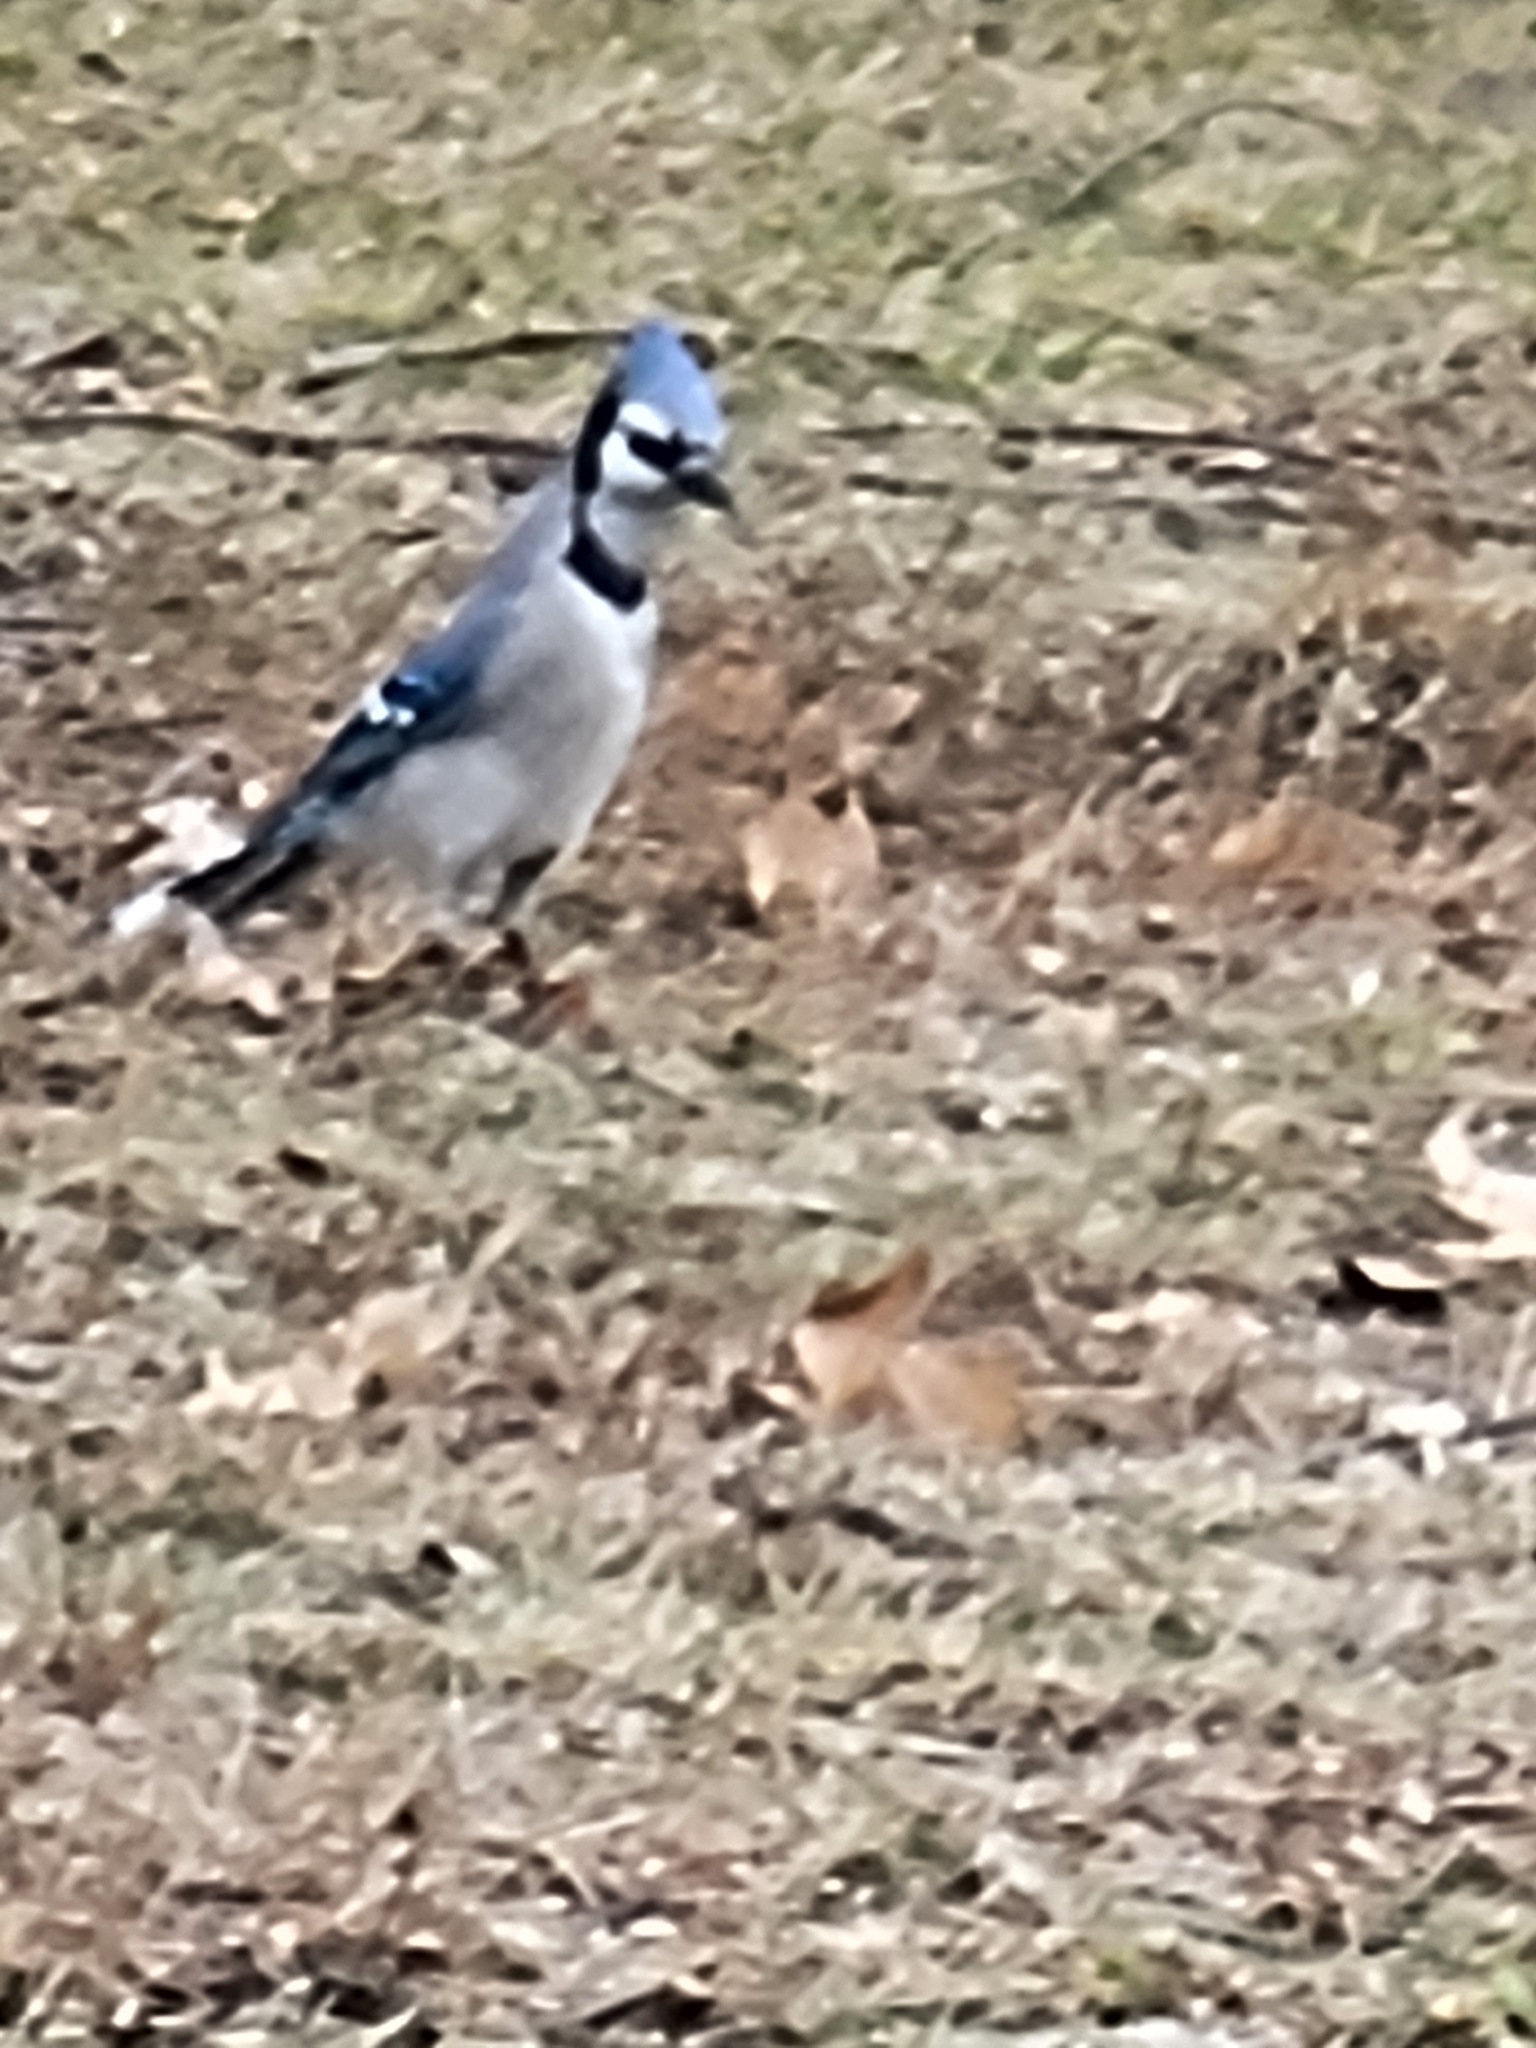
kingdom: Animalia
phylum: Chordata
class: Aves
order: Passeriformes
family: Corvidae
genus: Cyanocitta
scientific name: Cyanocitta cristata
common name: Blue jay
